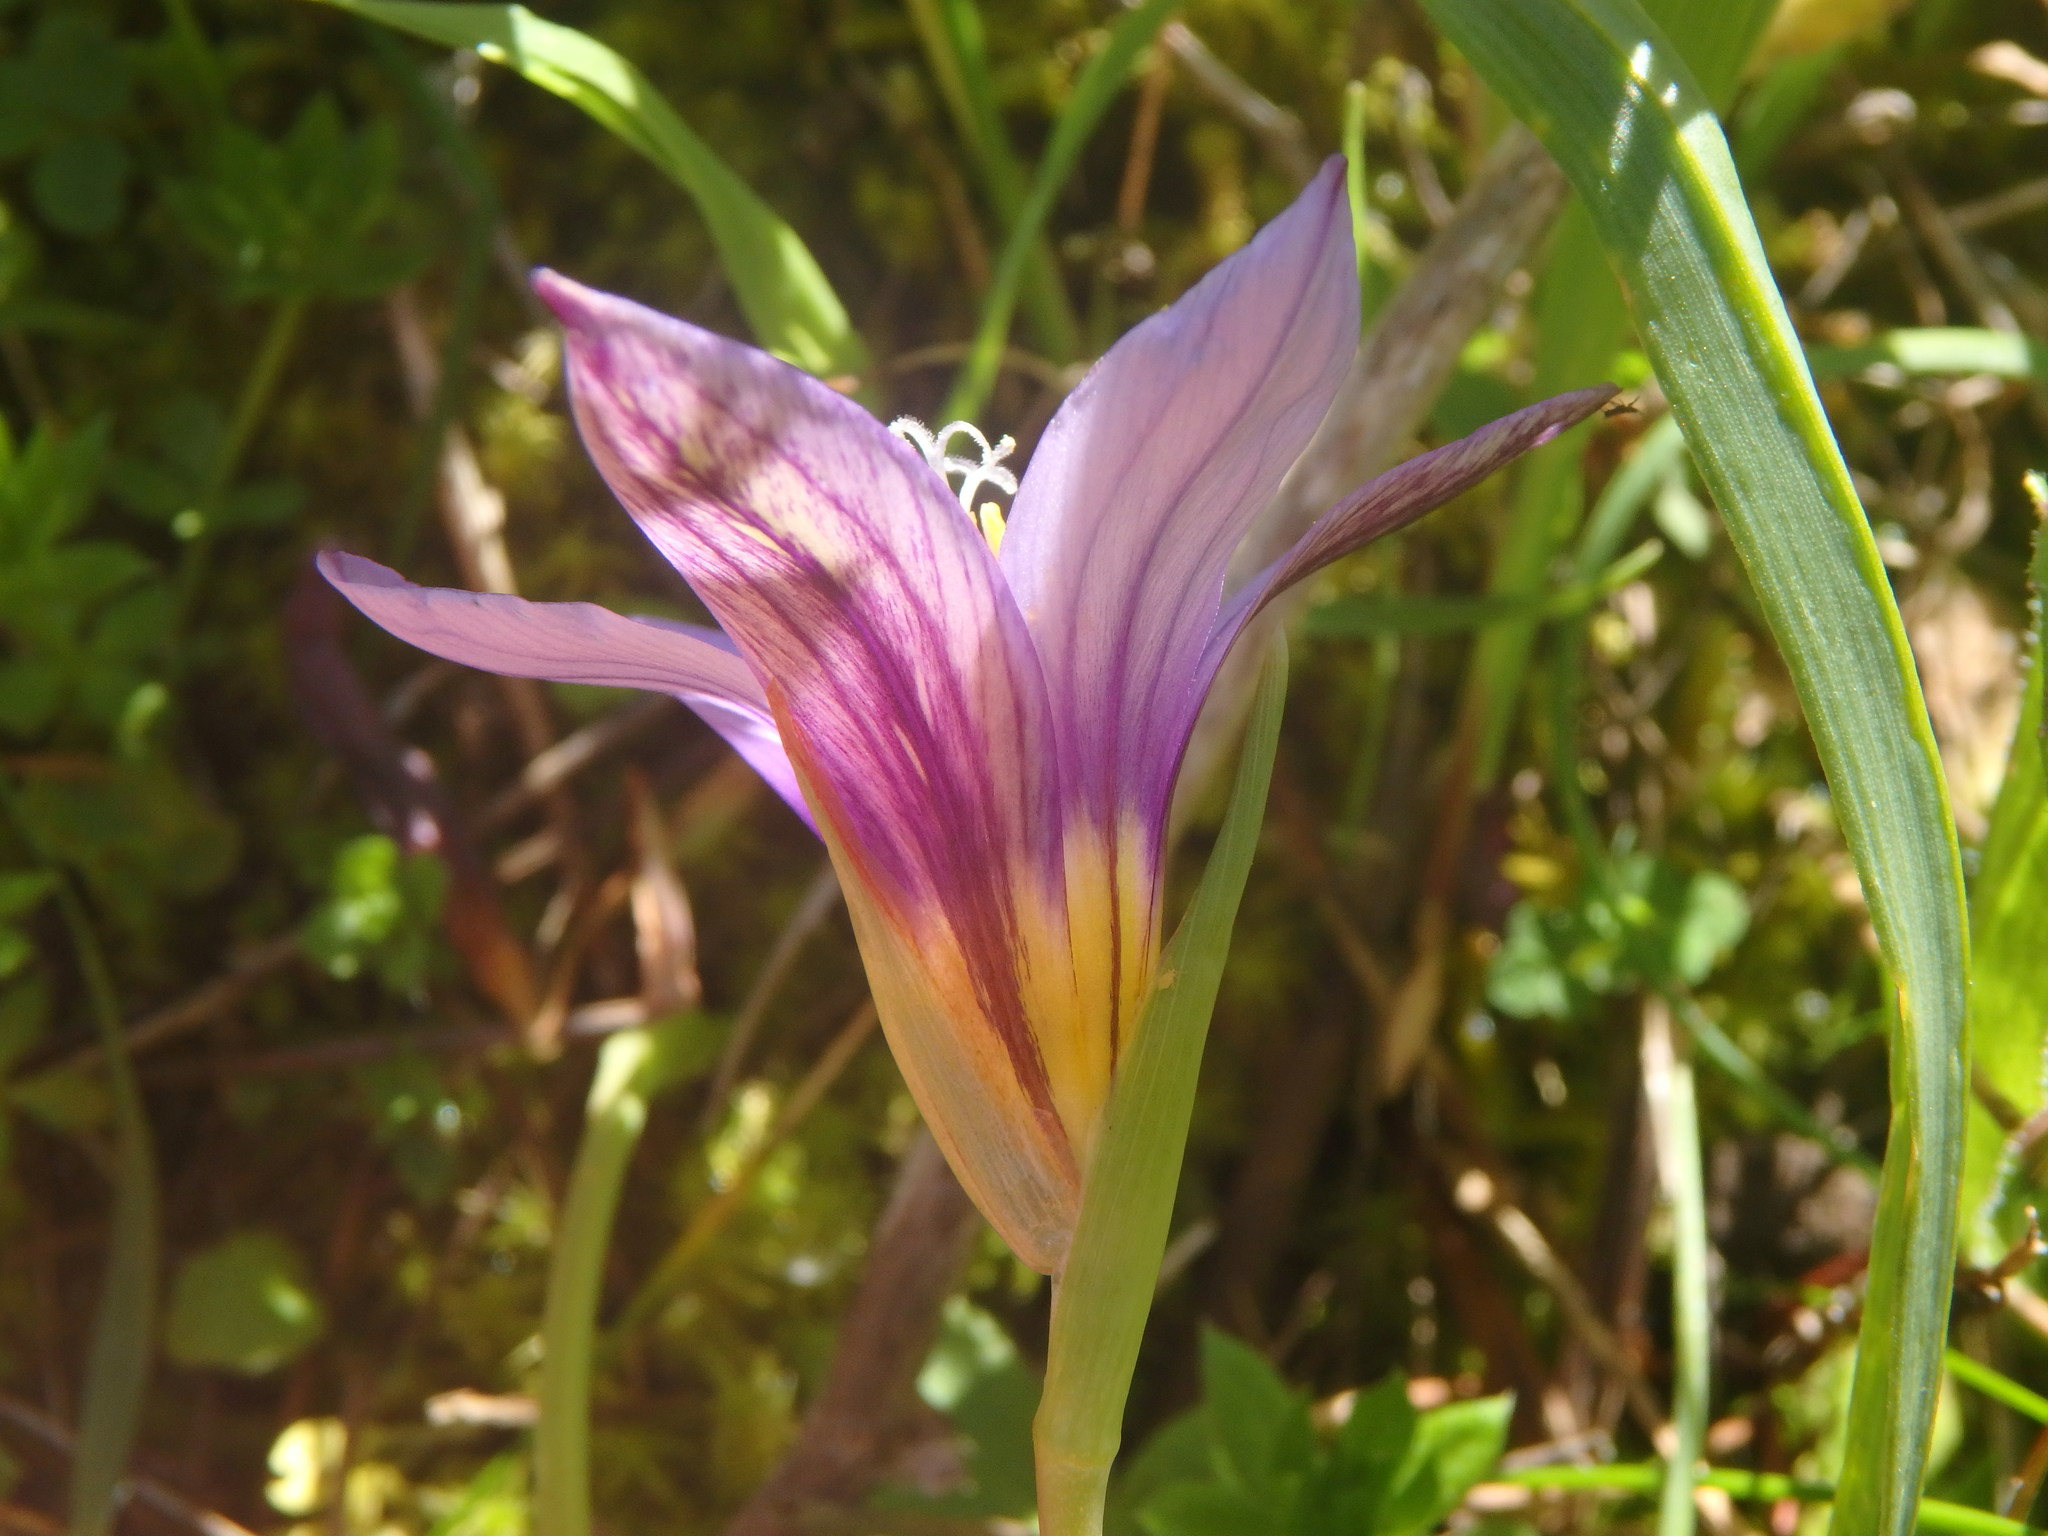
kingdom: Plantae
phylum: Tracheophyta
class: Liliopsida
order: Asparagales
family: Iridaceae
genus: Romulea
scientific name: Romulea columnae
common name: Sand-crocus
